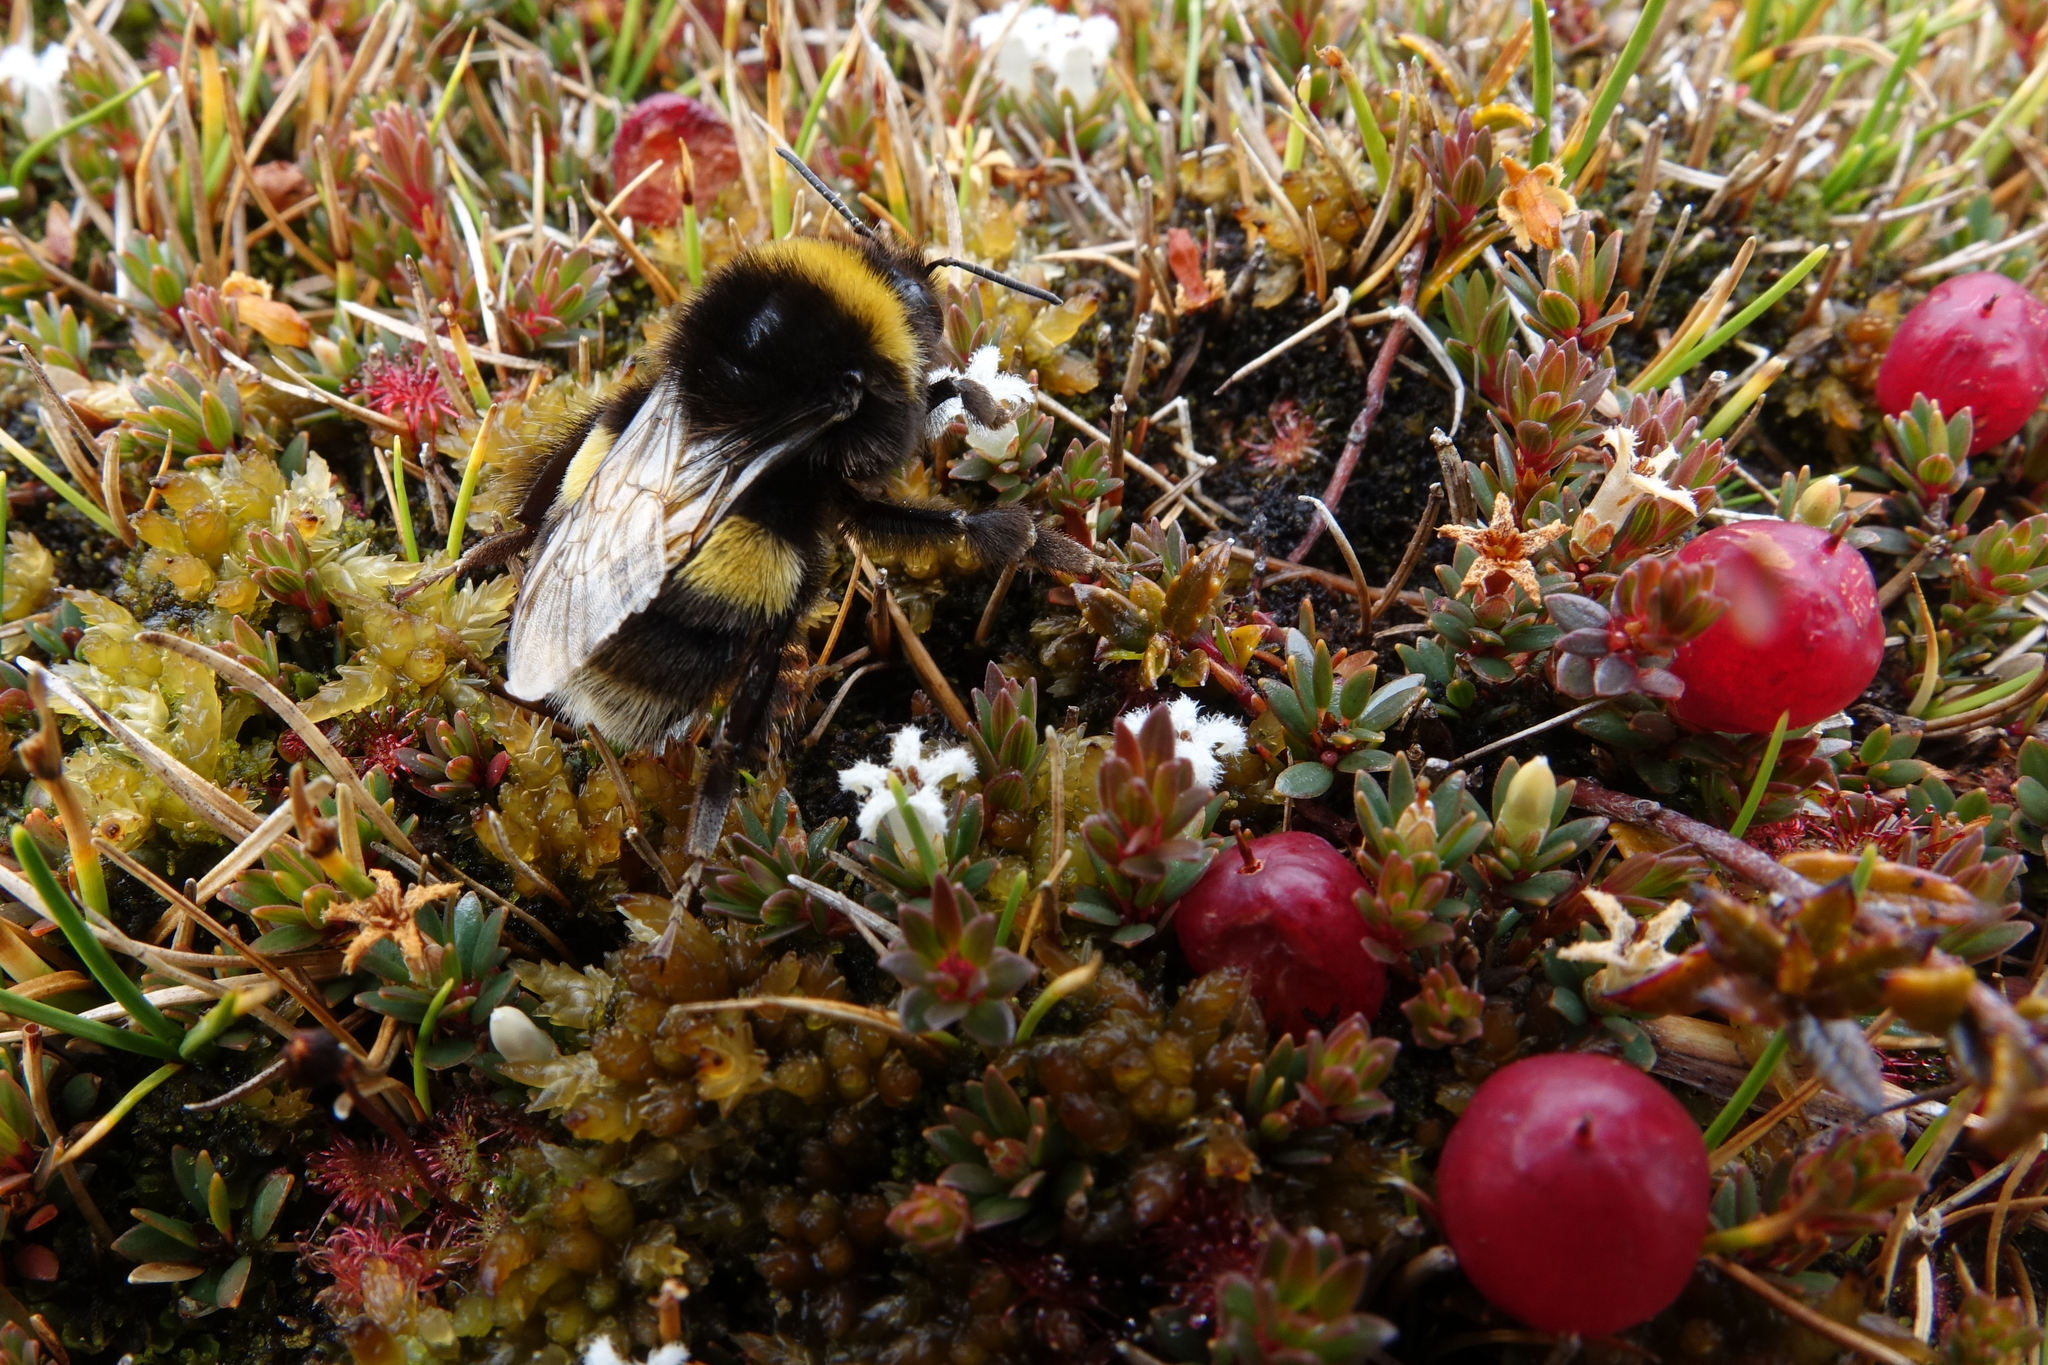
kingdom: Animalia
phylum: Arthropoda
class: Insecta
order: Hymenoptera
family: Apidae
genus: Bombus
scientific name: Bombus terrestris
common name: Buff-tailed bumblebee
